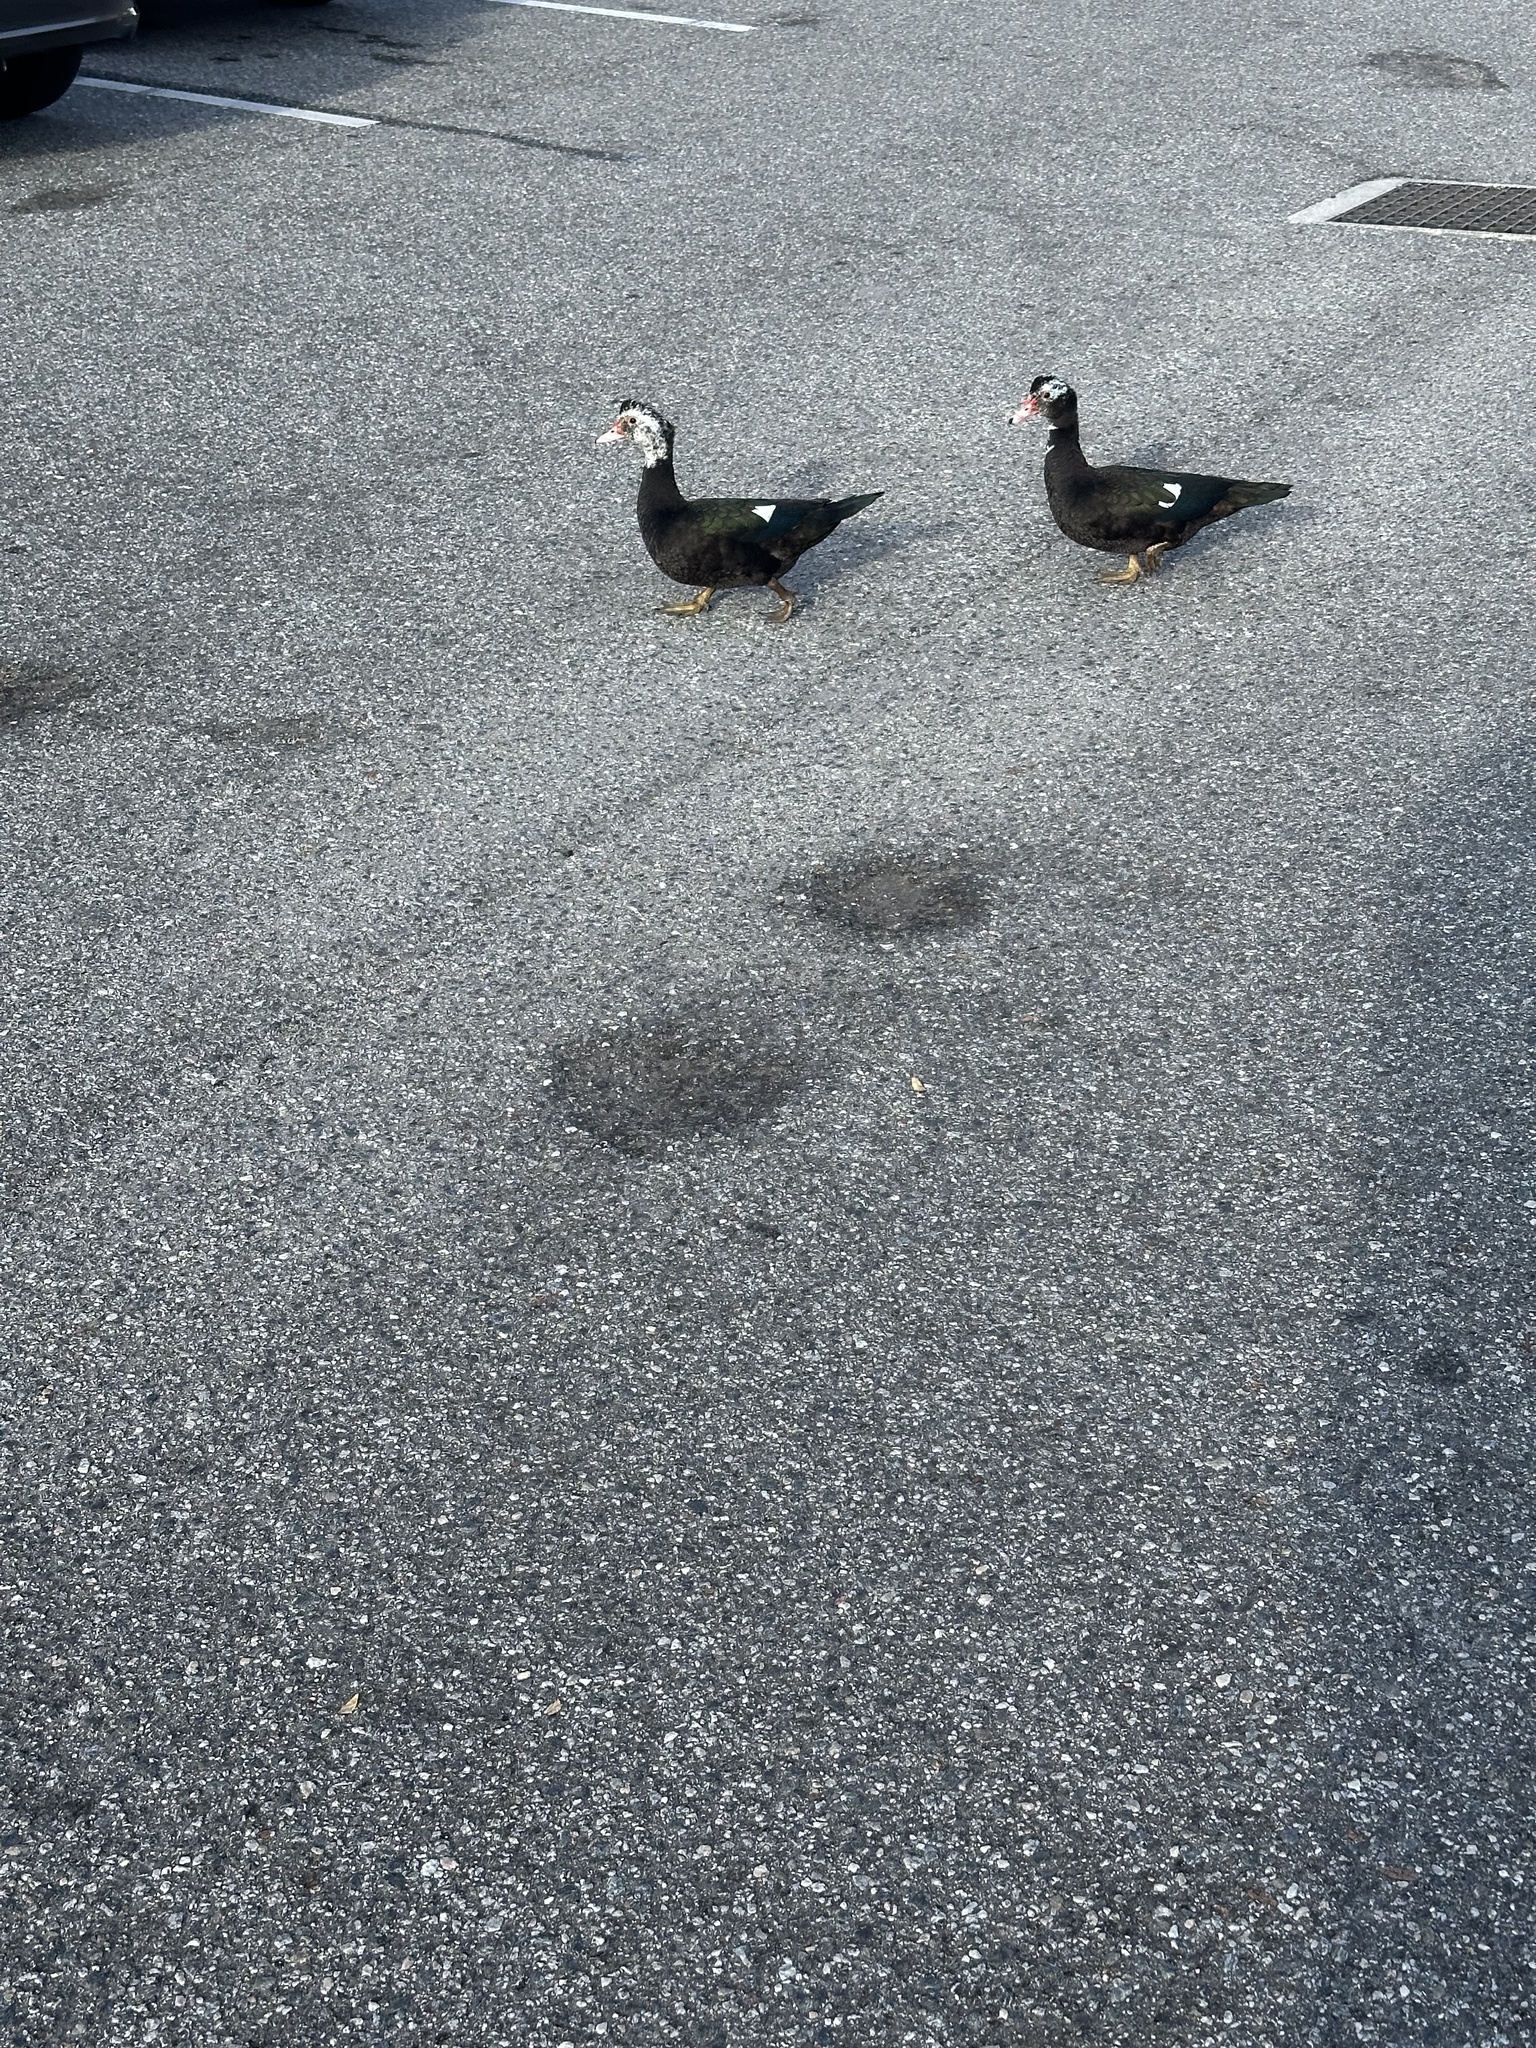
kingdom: Animalia
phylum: Chordata
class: Aves
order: Anseriformes
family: Anatidae
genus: Cairina
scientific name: Cairina moschata
